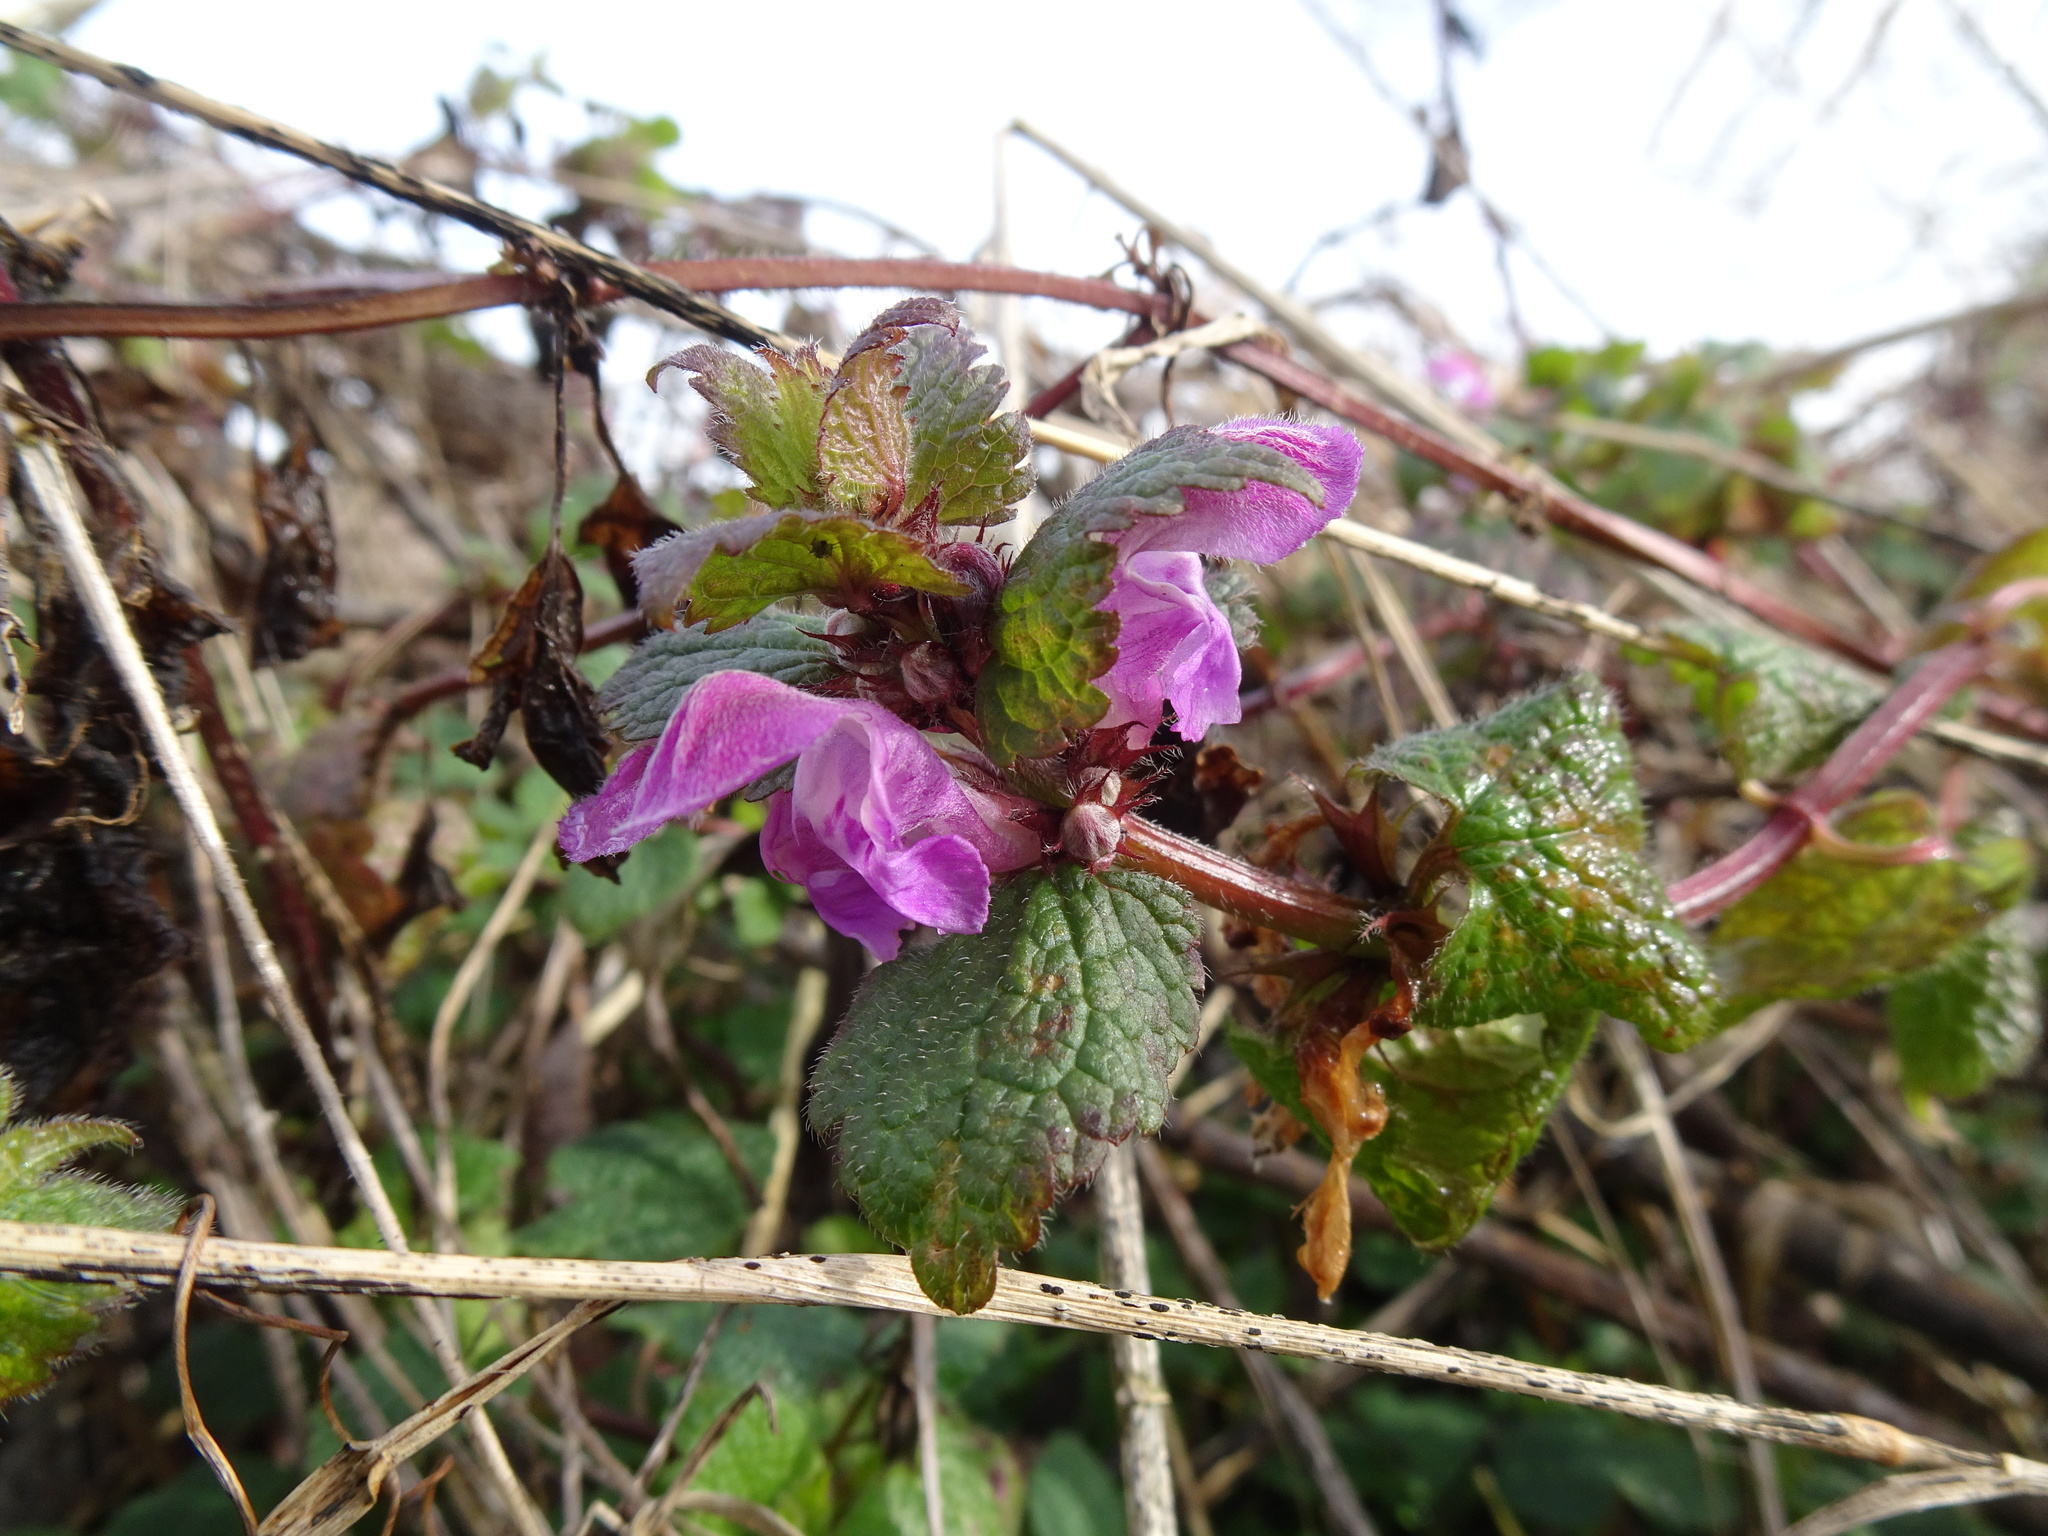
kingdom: Plantae
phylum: Tracheophyta
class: Magnoliopsida
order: Lamiales
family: Lamiaceae
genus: Lamium
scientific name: Lamium maculatum
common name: Spotted dead-nettle
